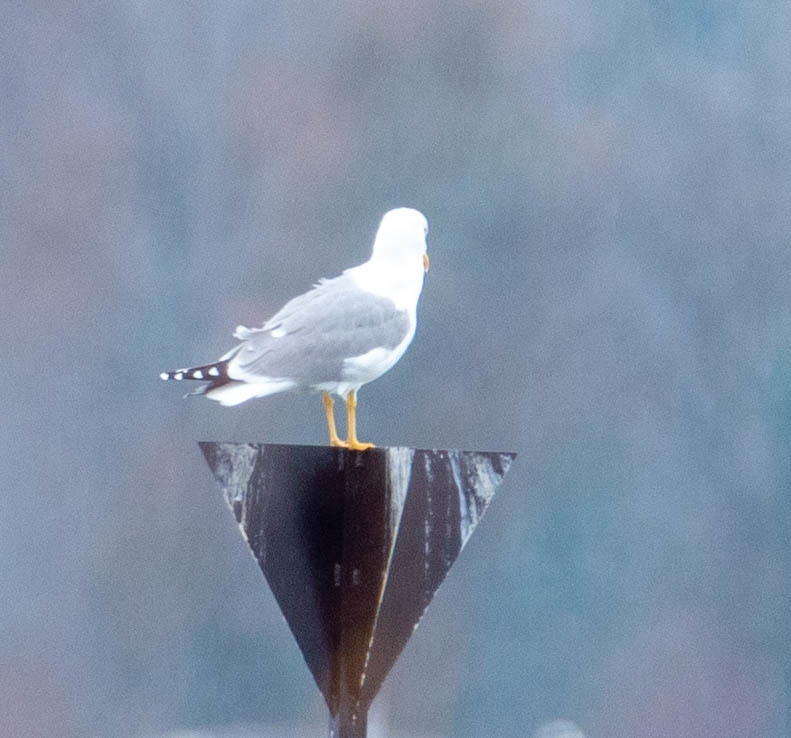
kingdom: Animalia
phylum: Chordata
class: Aves
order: Charadriiformes
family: Laridae
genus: Larus
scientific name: Larus michahellis
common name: Yellow-legged gull
